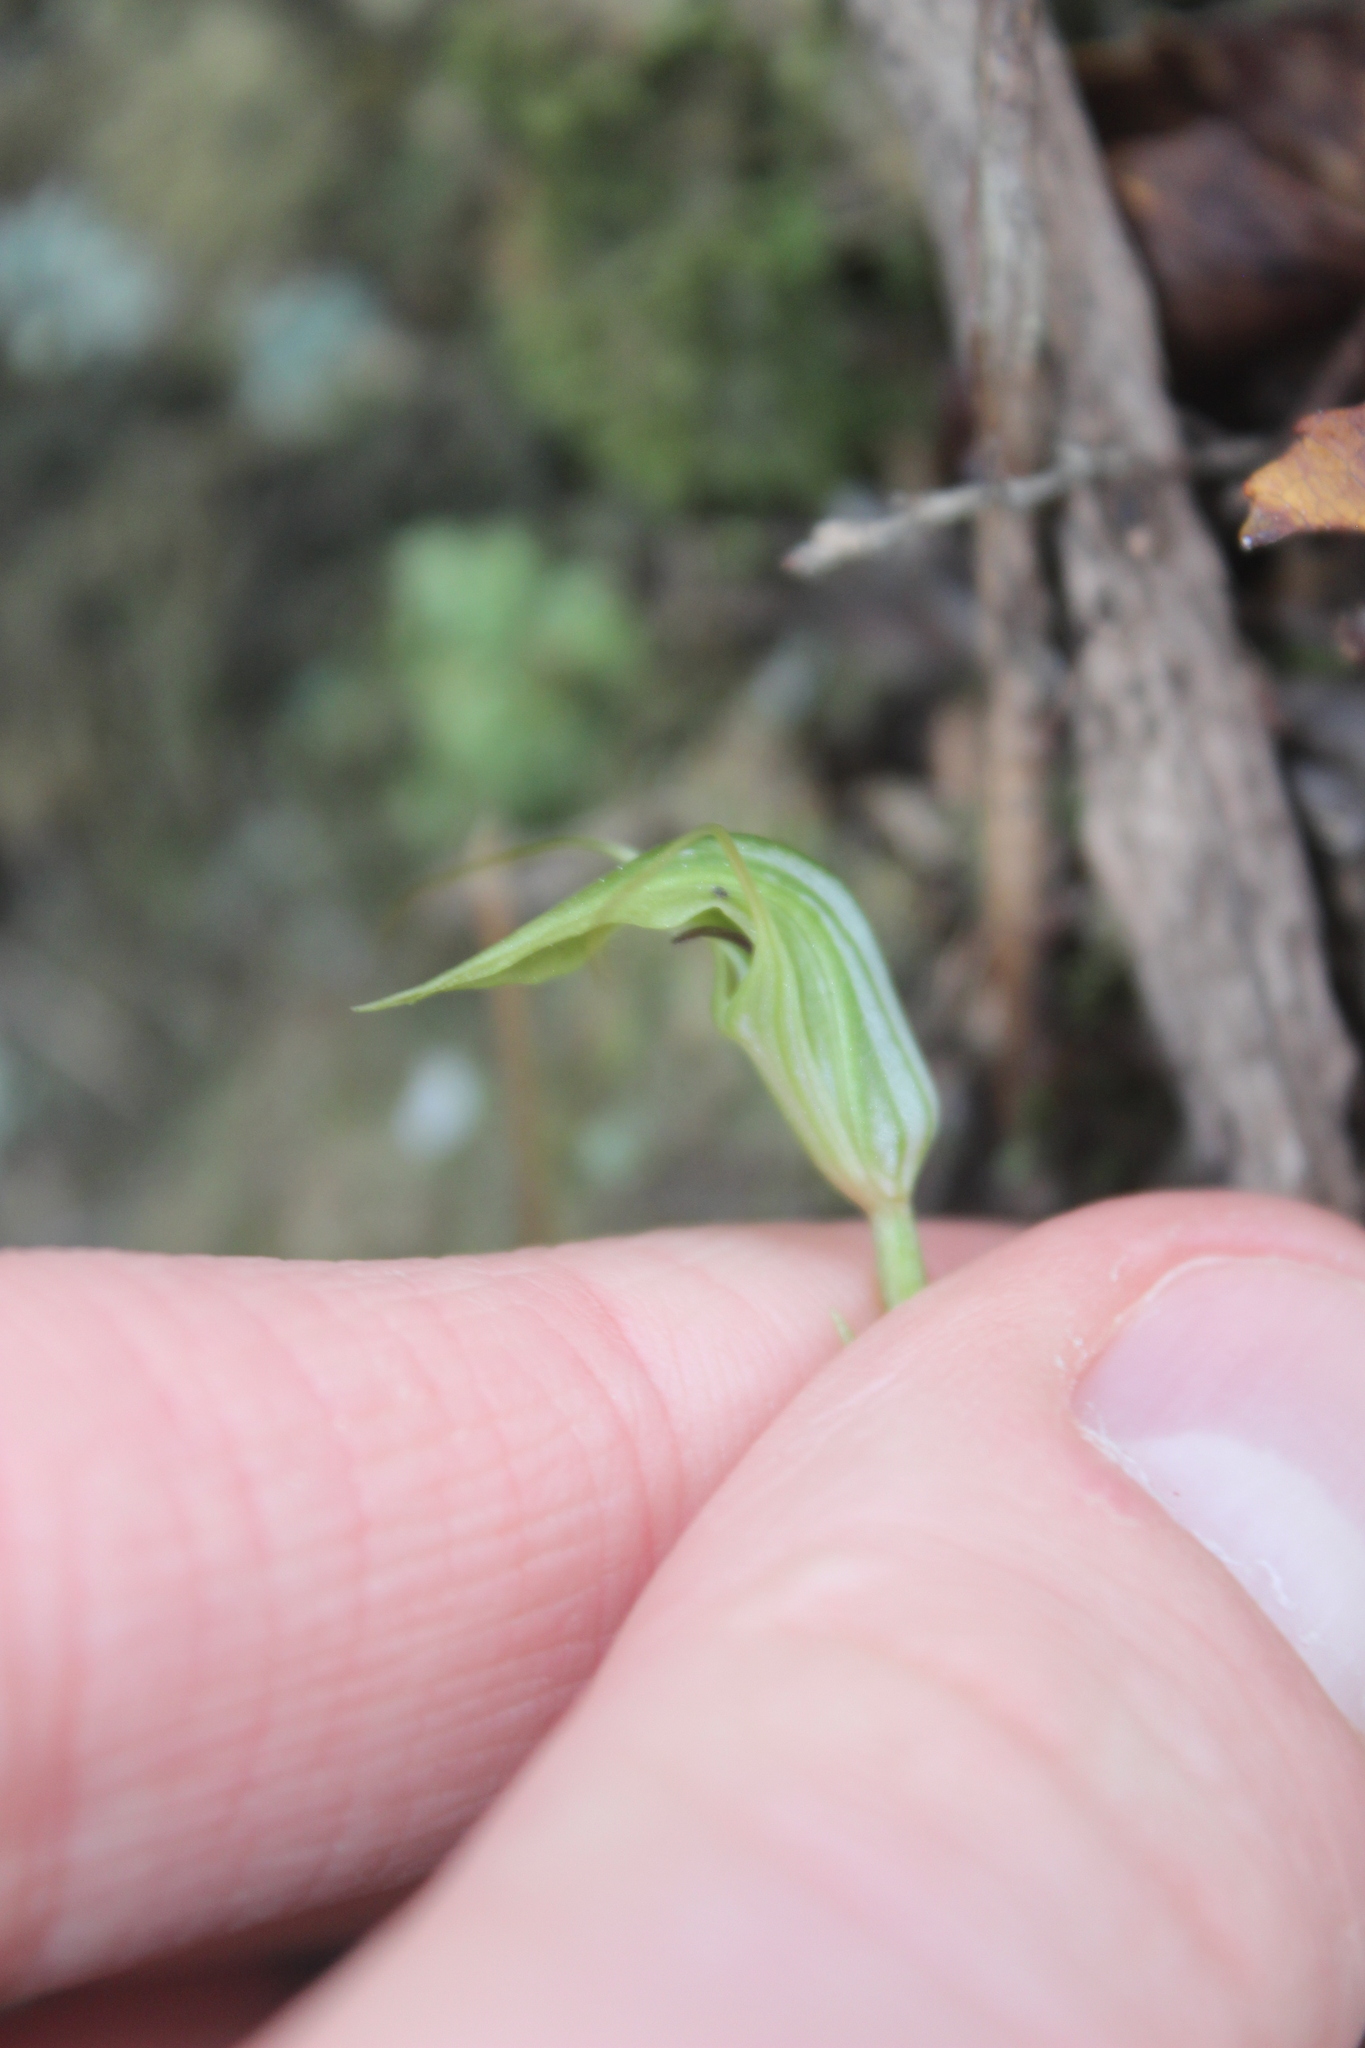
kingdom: Plantae
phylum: Tracheophyta
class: Liliopsida
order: Asparagales
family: Orchidaceae
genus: Pterostylis
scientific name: Pterostylis trullifolia
